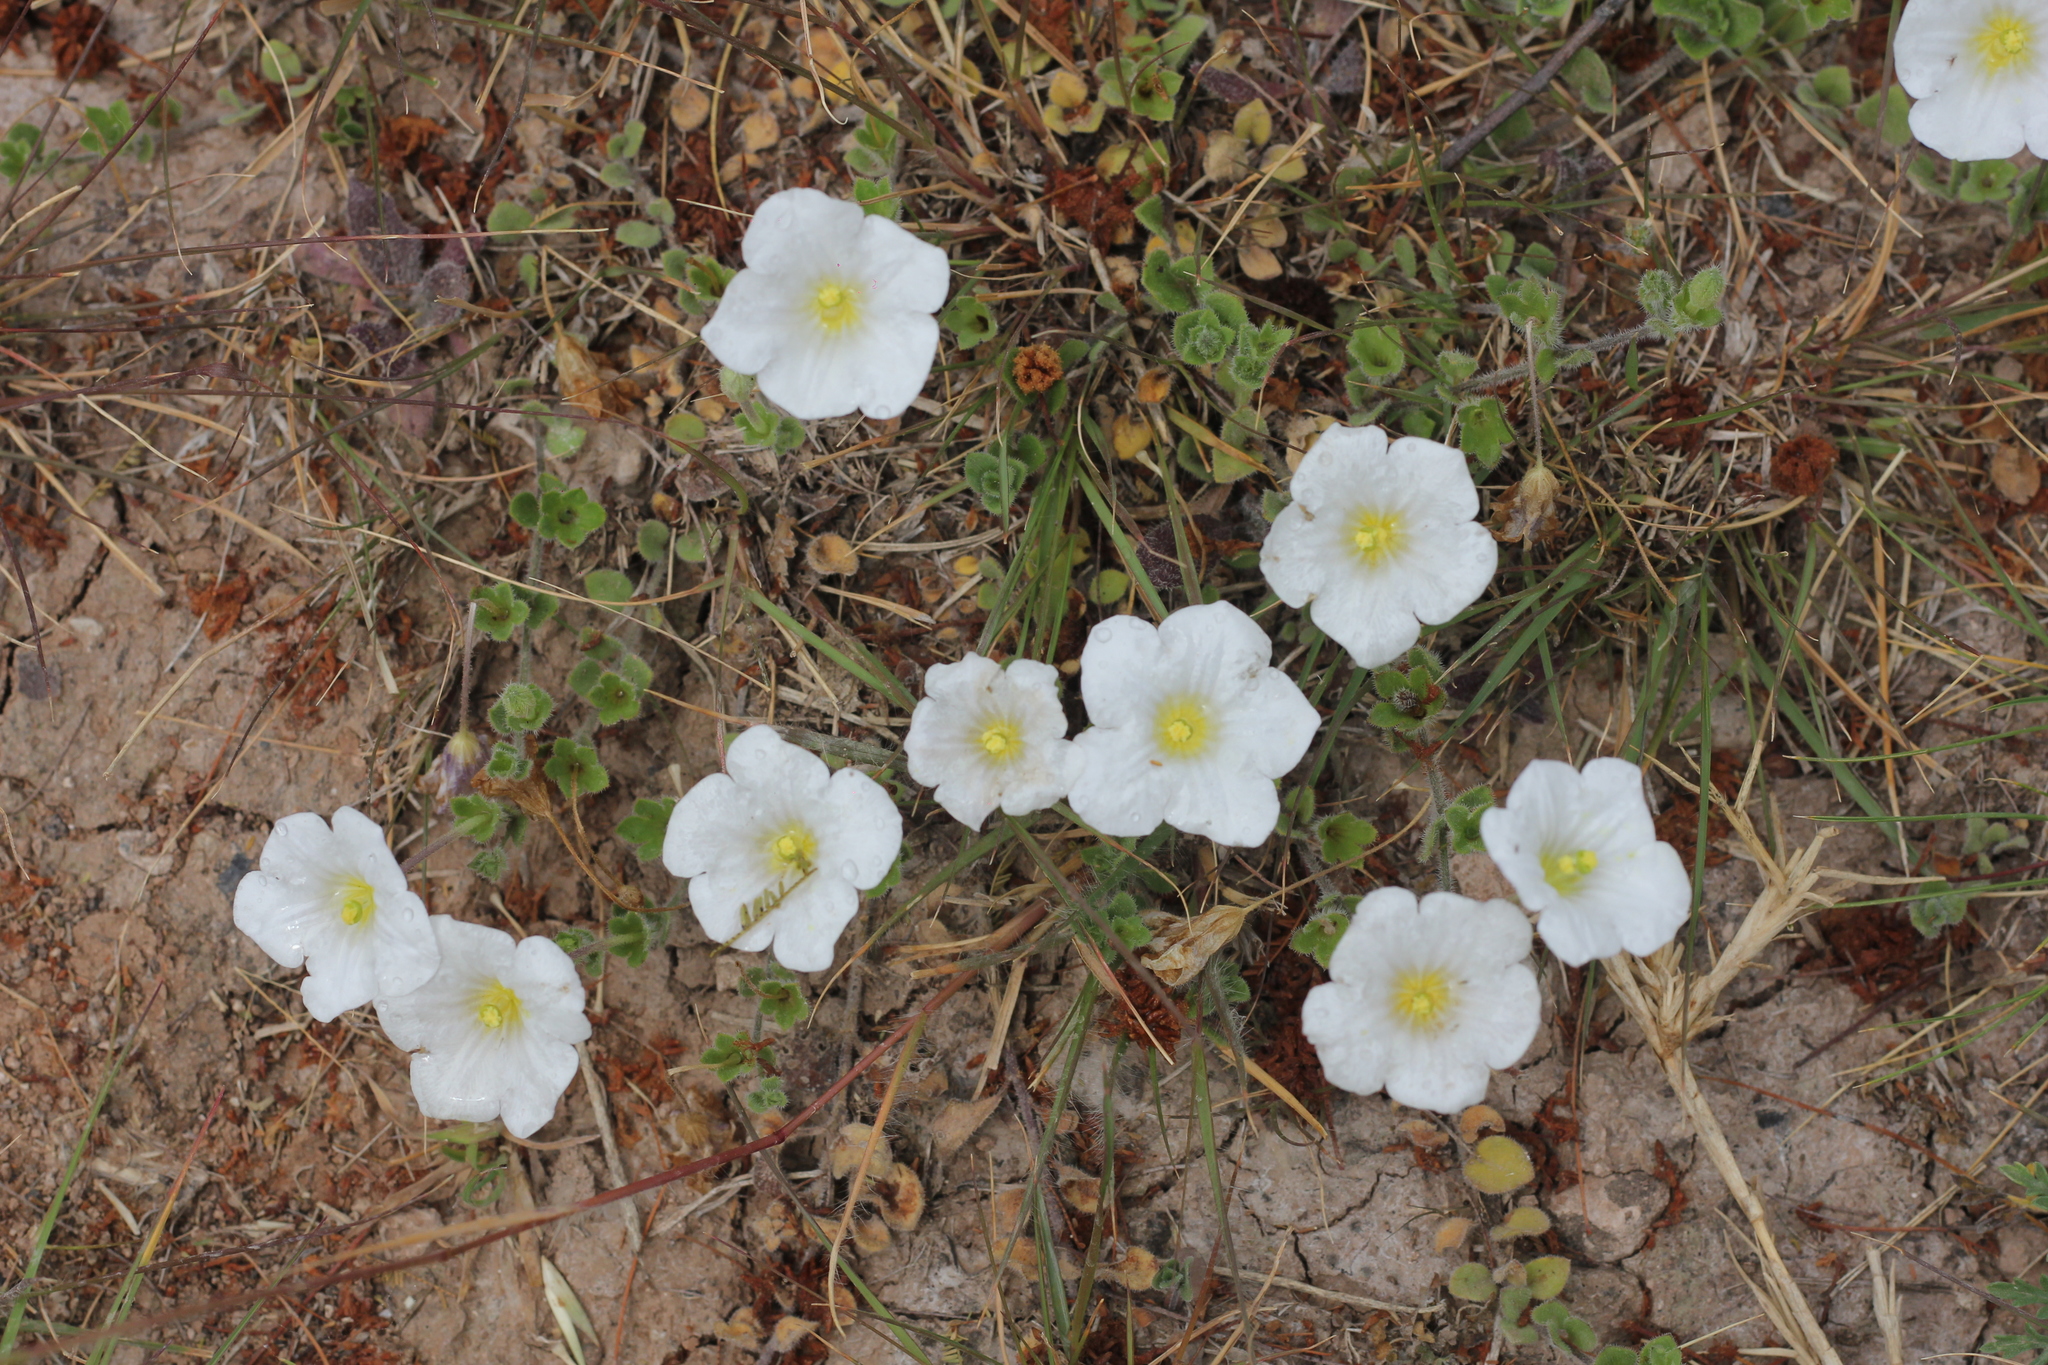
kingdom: Plantae
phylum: Tracheophyta
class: Magnoliopsida
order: Solanales
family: Solanaceae
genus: Nierembergia
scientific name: Nierembergia calycina
